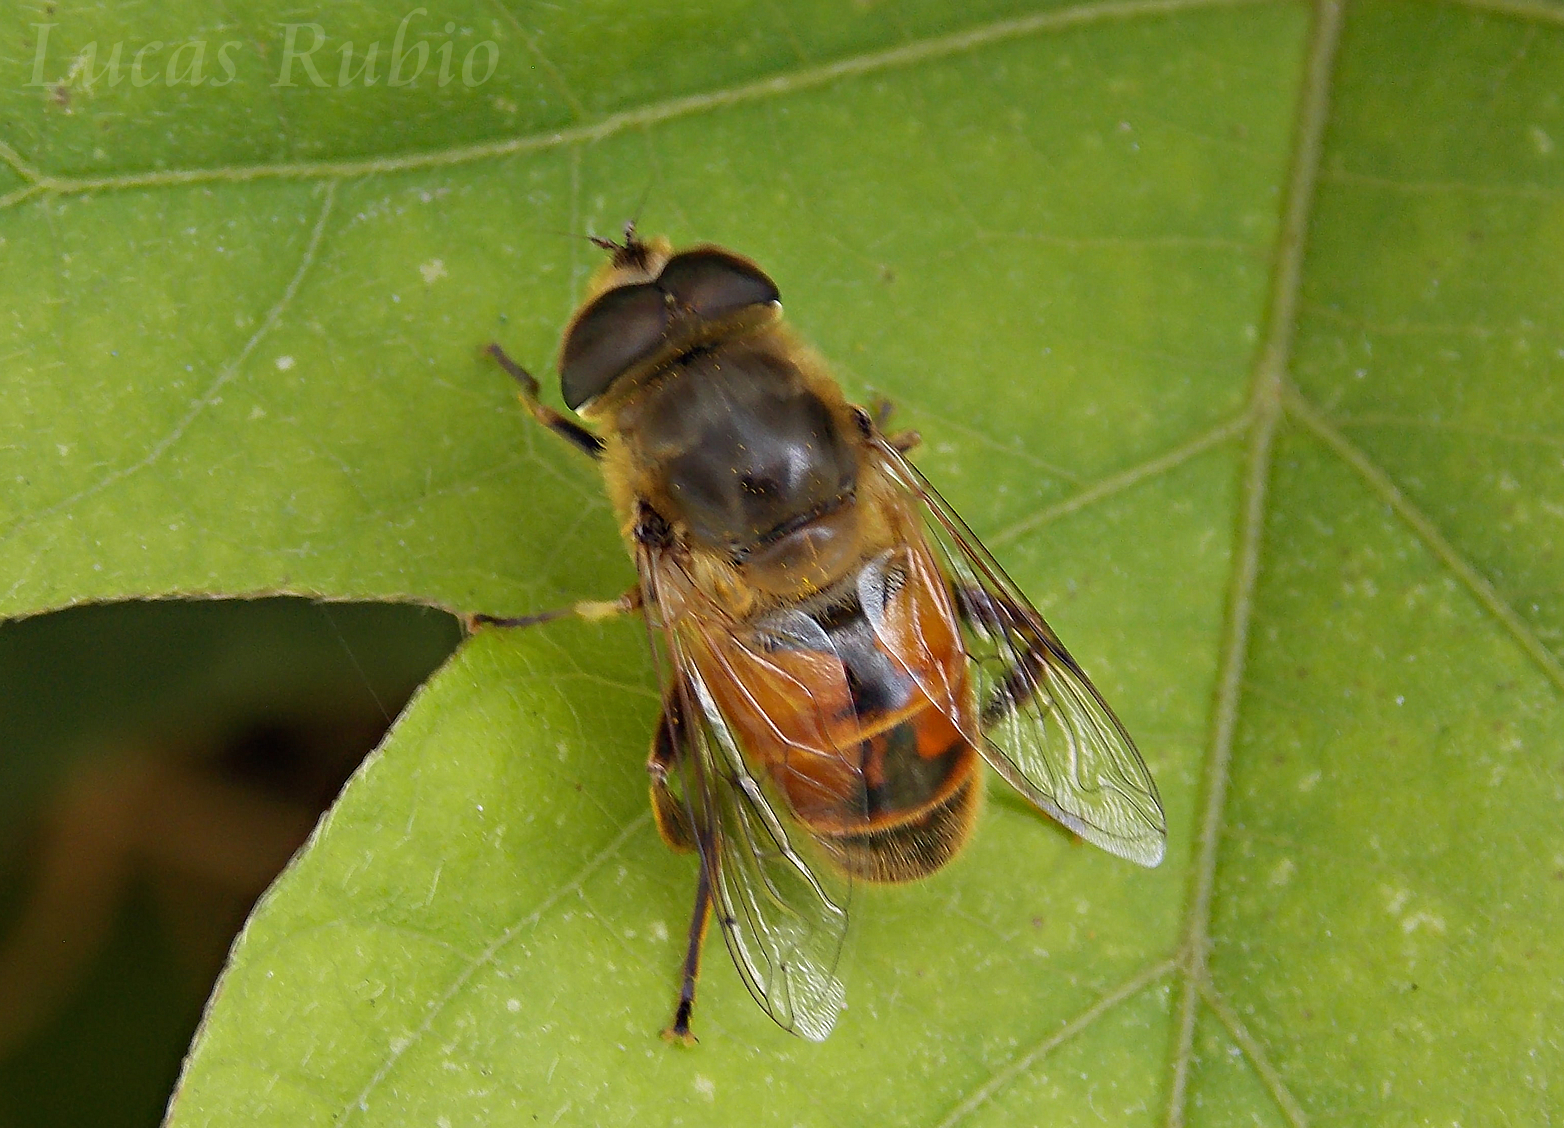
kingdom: Animalia
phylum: Arthropoda
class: Insecta
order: Diptera
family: Syrphidae
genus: Eristalis
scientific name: Eristalis tenax
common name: Drone fly
